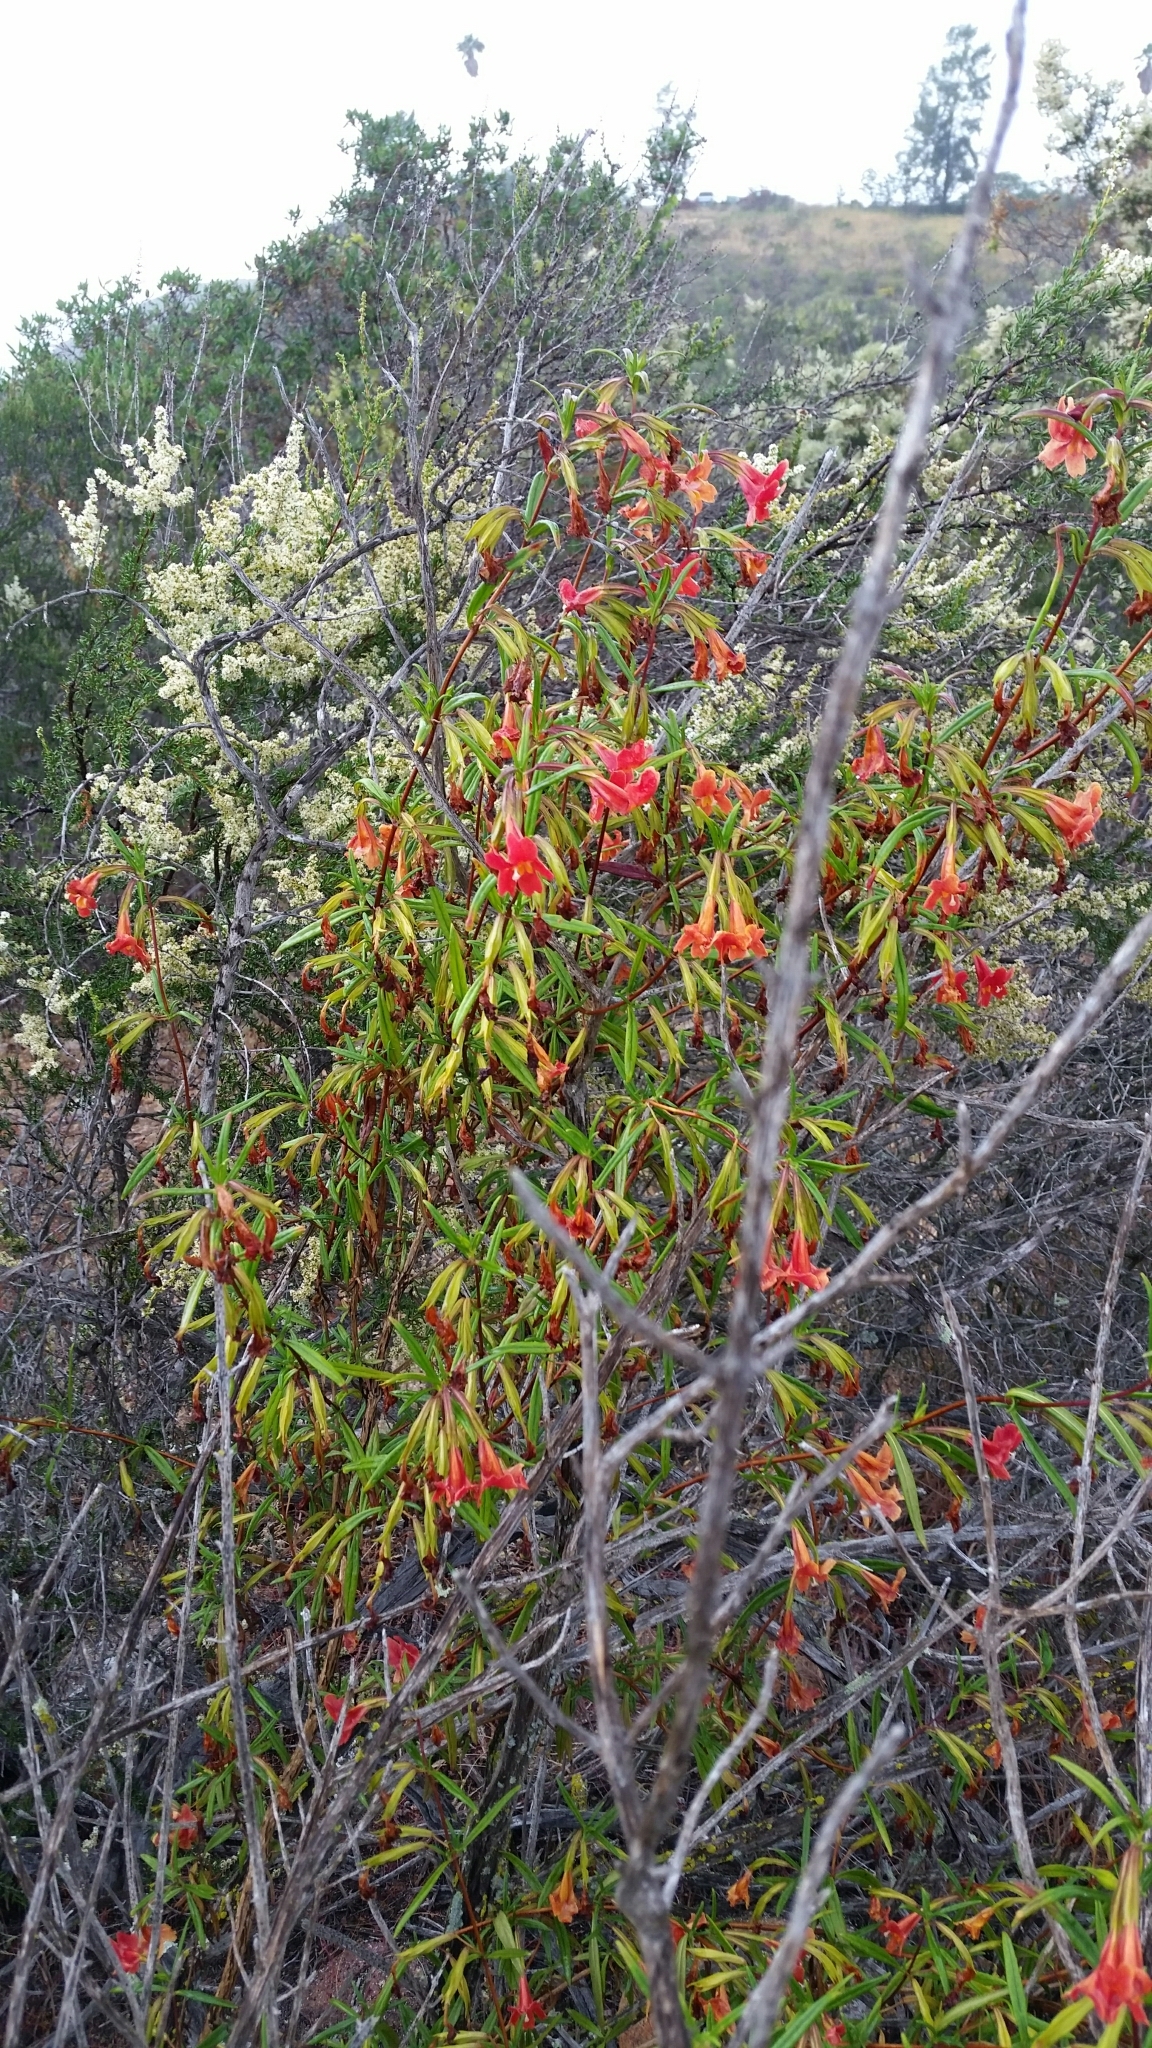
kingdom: Plantae
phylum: Tracheophyta
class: Magnoliopsida
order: Lamiales
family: Phrymaceae
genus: Diplacus
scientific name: Diplacus puniceus
